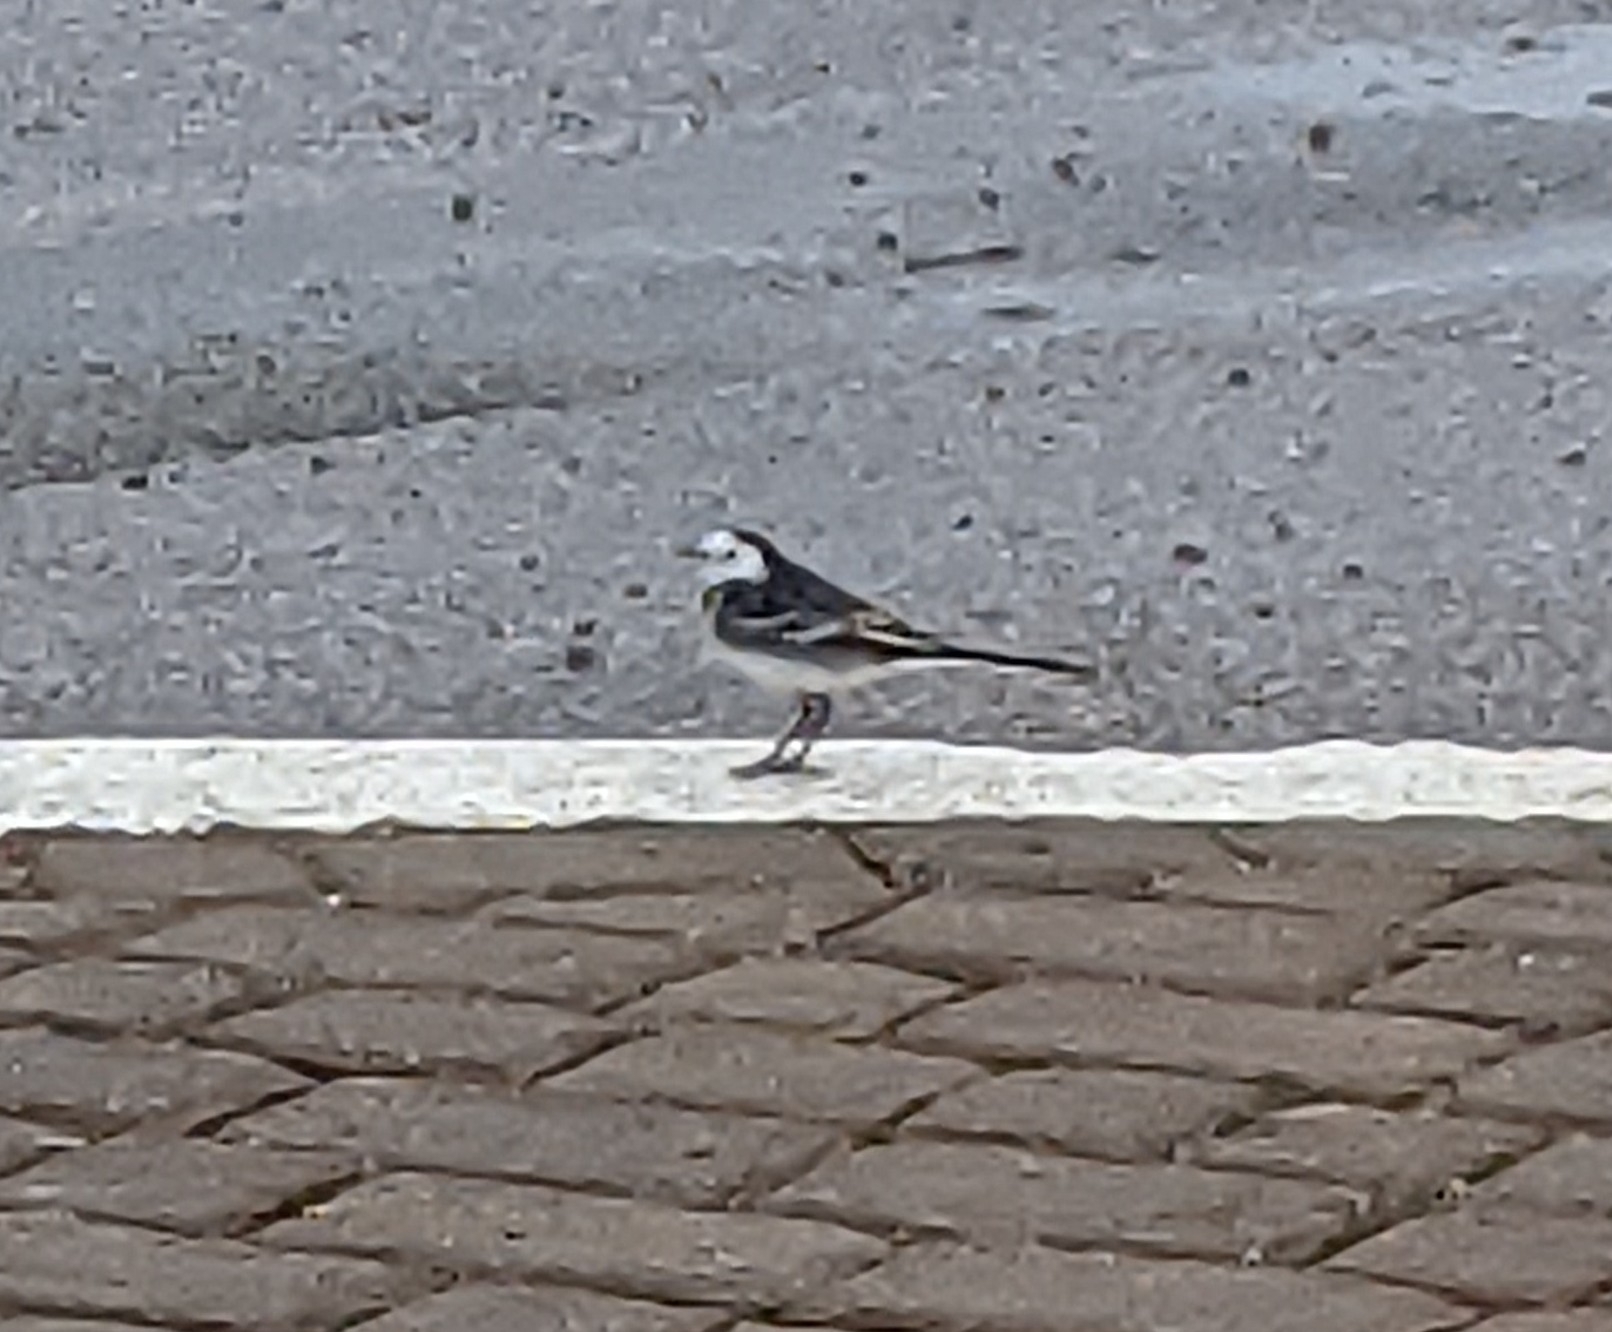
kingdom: Animalia
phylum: Chordata
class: Aves
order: Passeriformes
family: Motacillidae
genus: Motacilla
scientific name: Motacilla alba
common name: White wagtail
